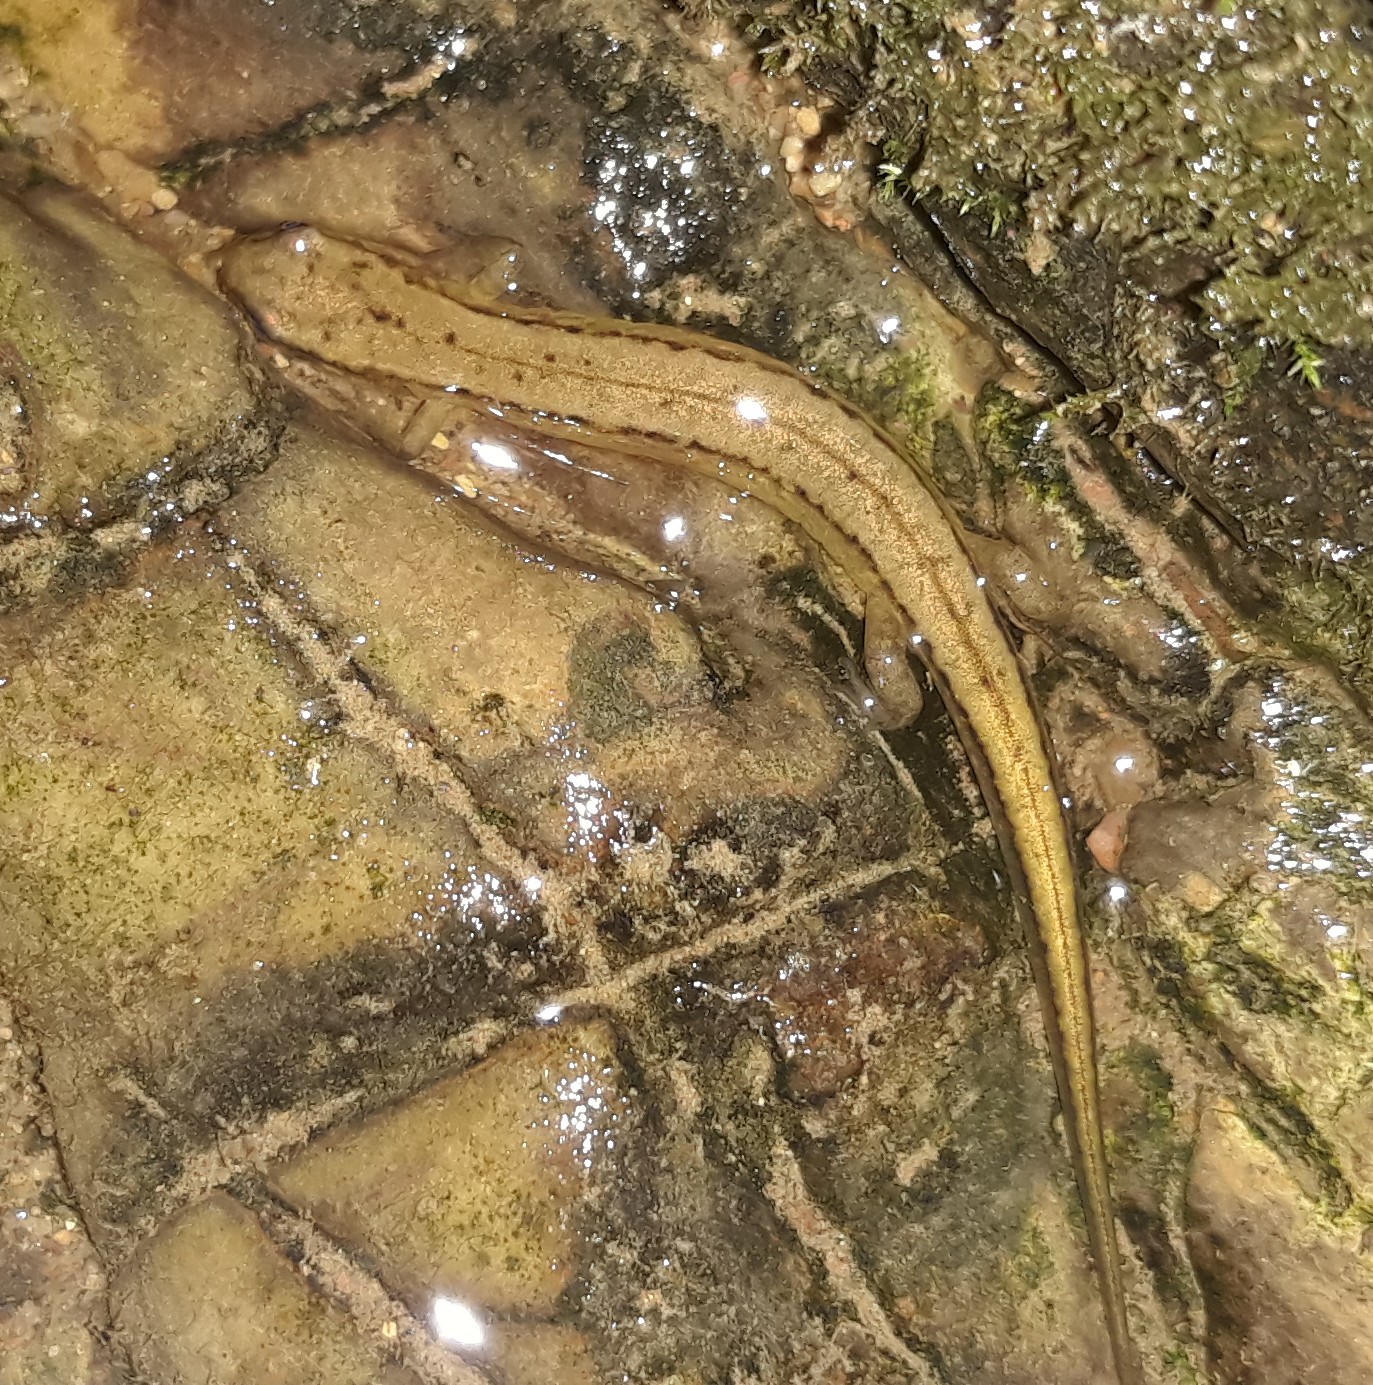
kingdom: Animalia
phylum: Chordata
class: Amphibia
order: Caudata
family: Plethodontidae
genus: Eurycea
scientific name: Eurycea cirrigera
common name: Southern two-lined salamander
